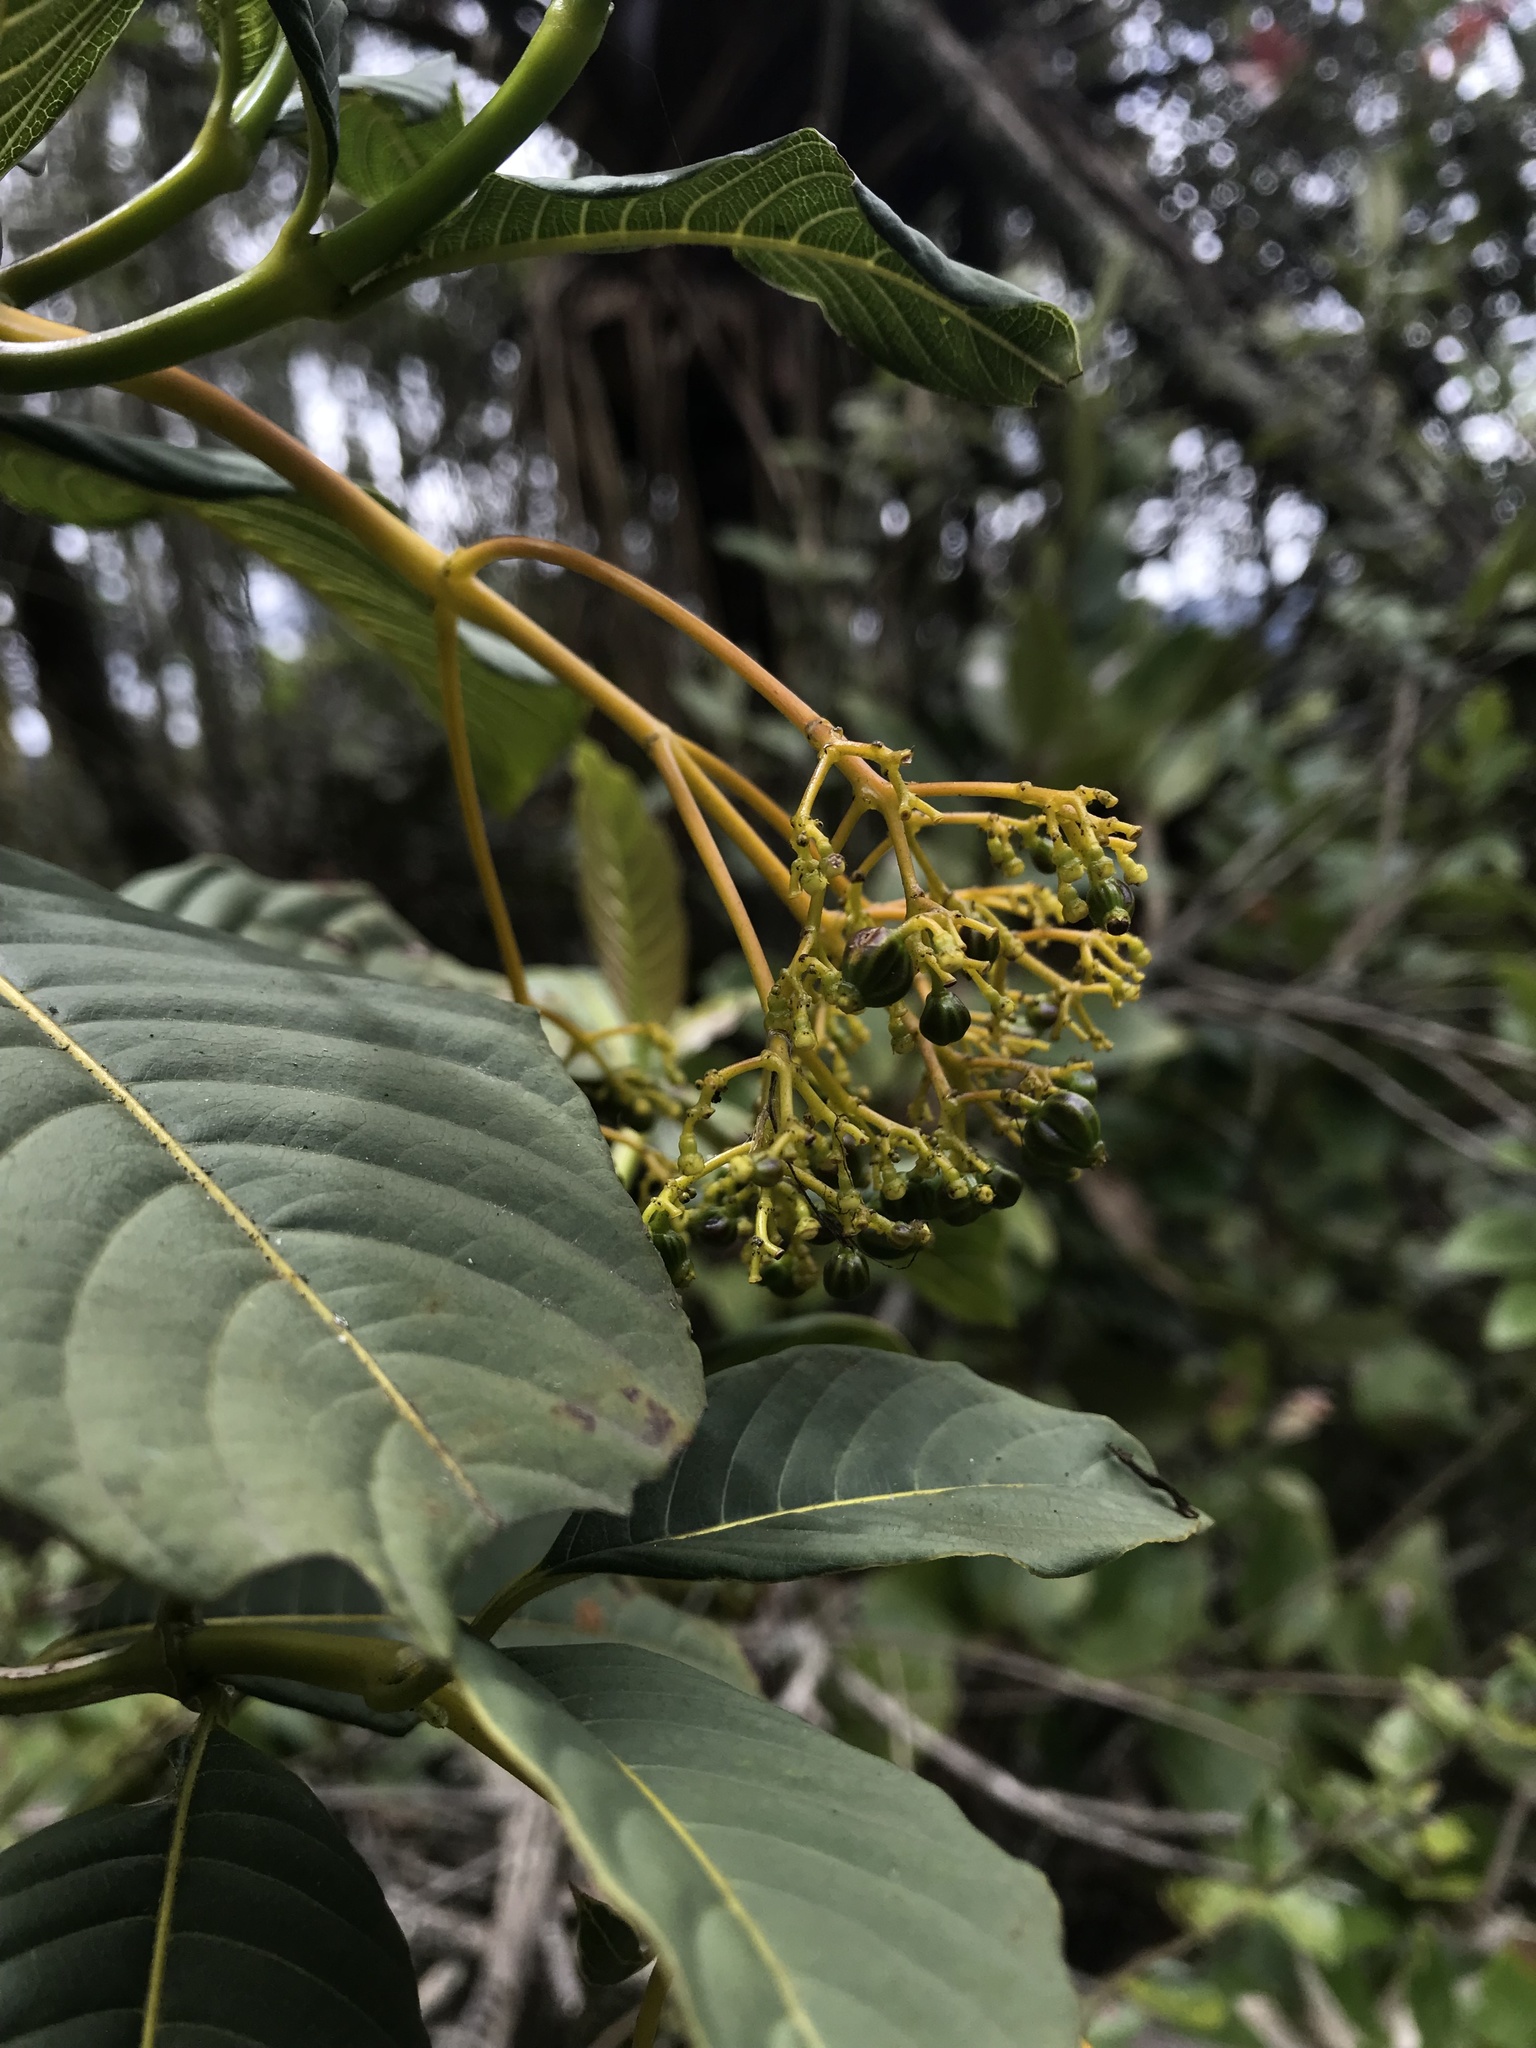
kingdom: Plantae
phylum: Tracheophyta
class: Magnoliopsida
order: Gentianales
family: Rubiaceae
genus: Palicourea
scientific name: Palicourea lineariflora
